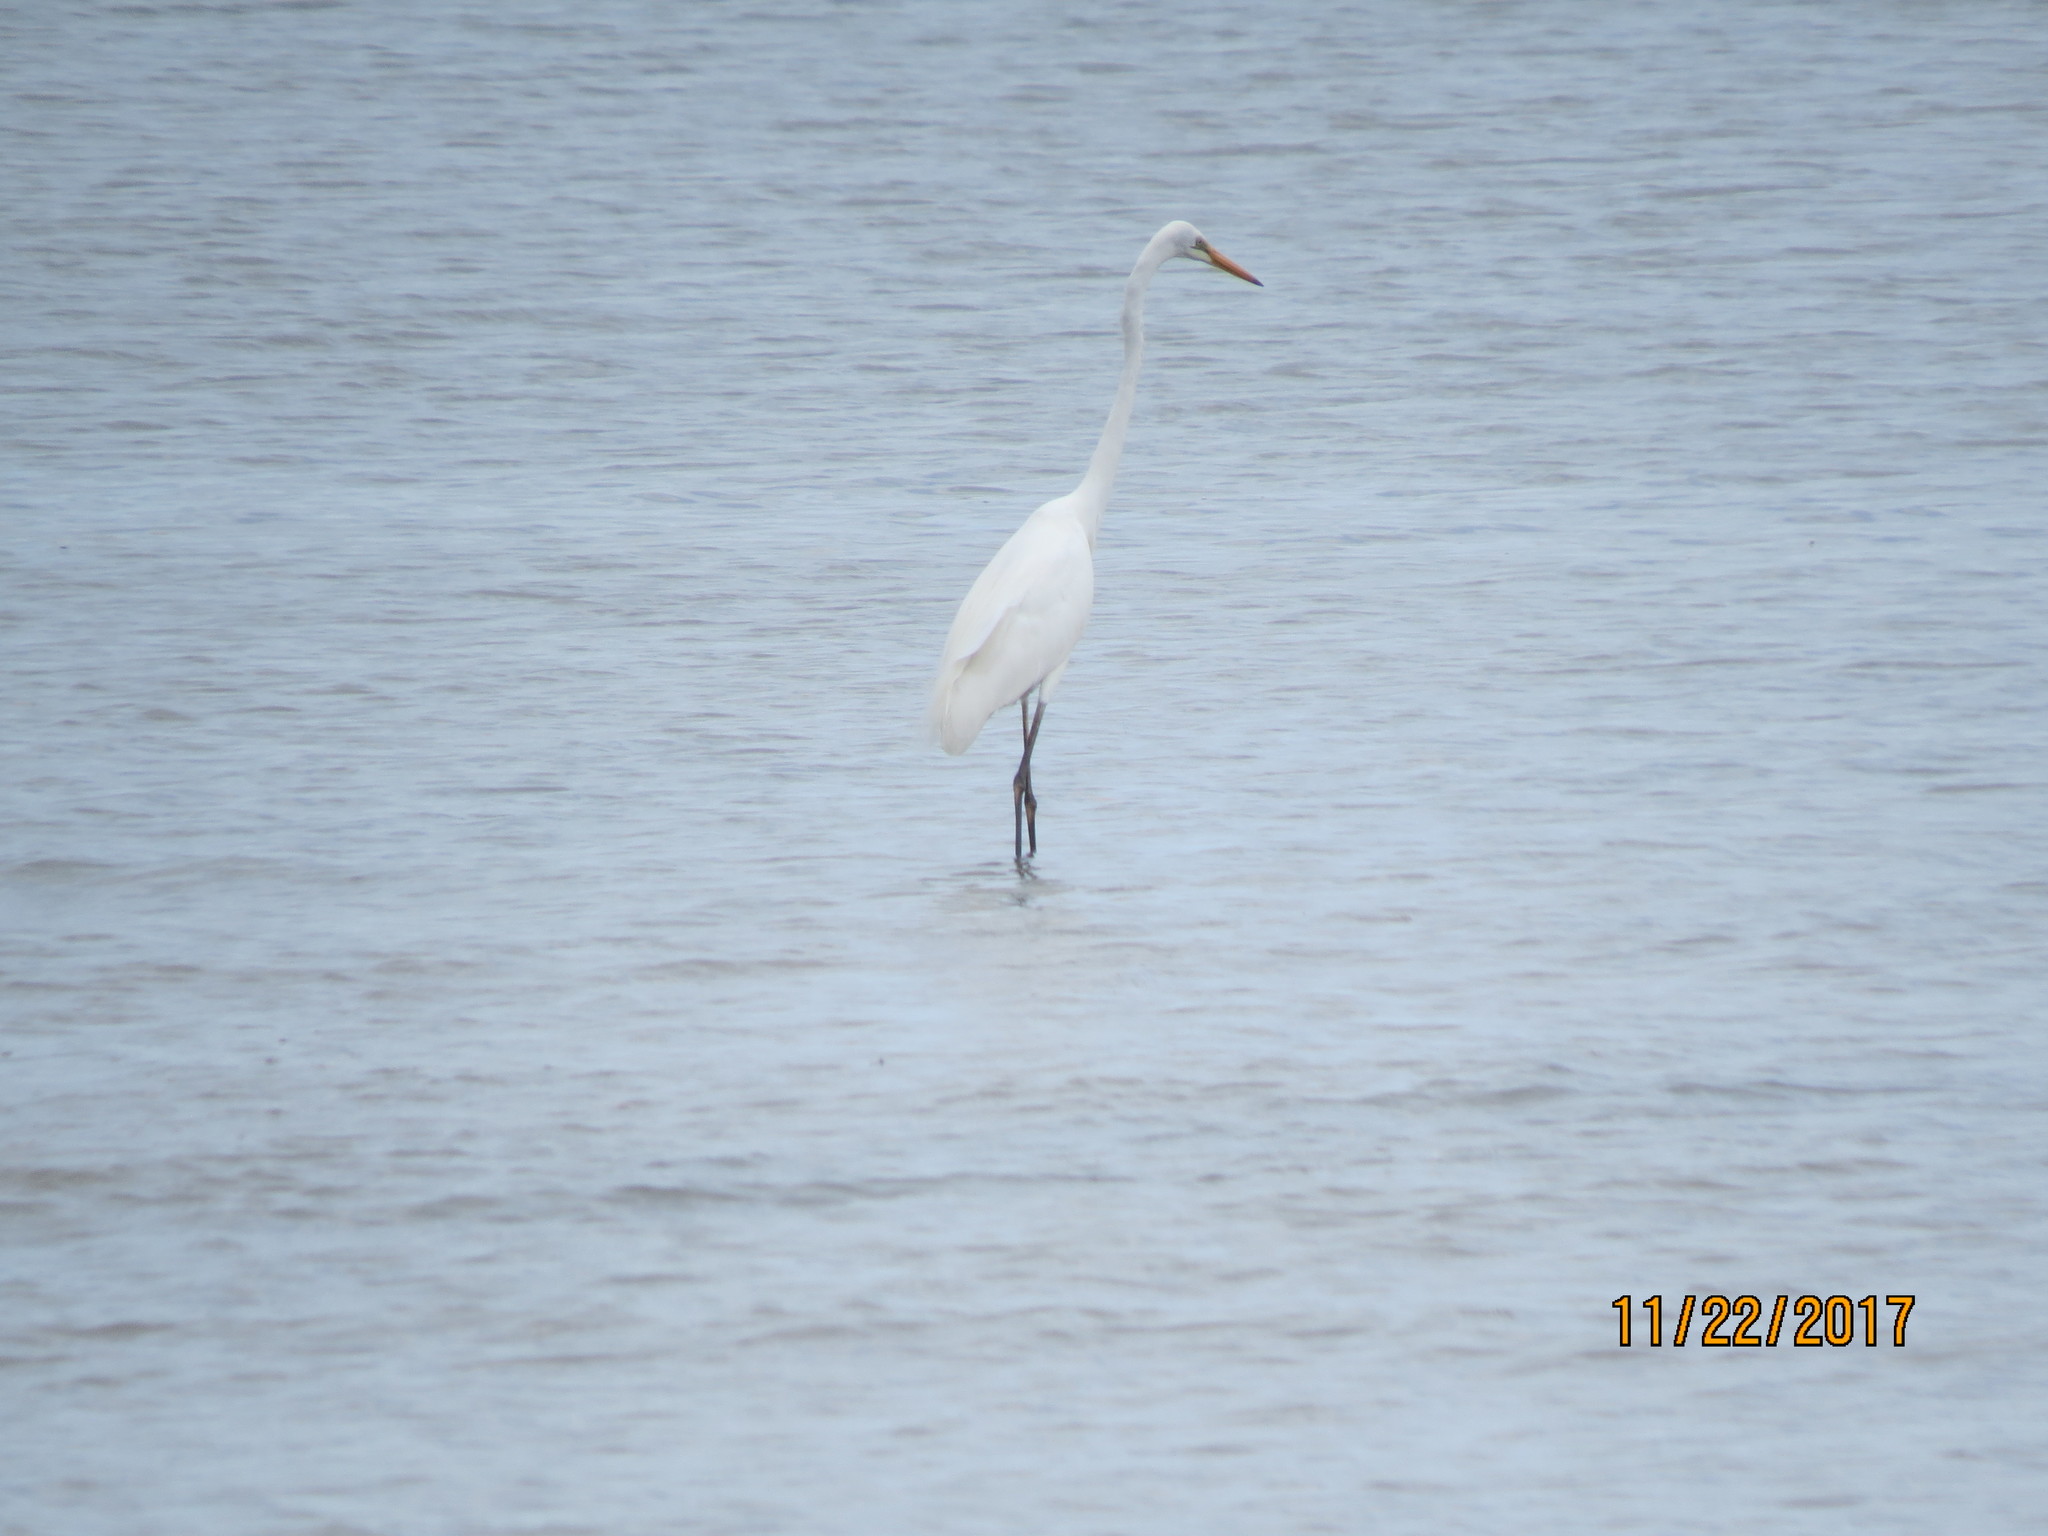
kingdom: Animalia
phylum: Chordata
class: Aves
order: Pelecaniformes
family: Ardeidae
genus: Ardea
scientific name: Ardea modesta
